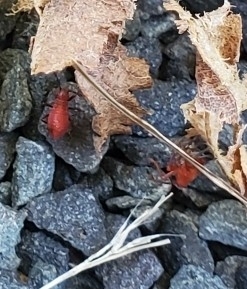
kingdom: Animalia
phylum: Arthropoda
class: Insecta
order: Hemiptera
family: Rhopalidae
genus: Boisea
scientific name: Boisea trivittata
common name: Boxelder bug
